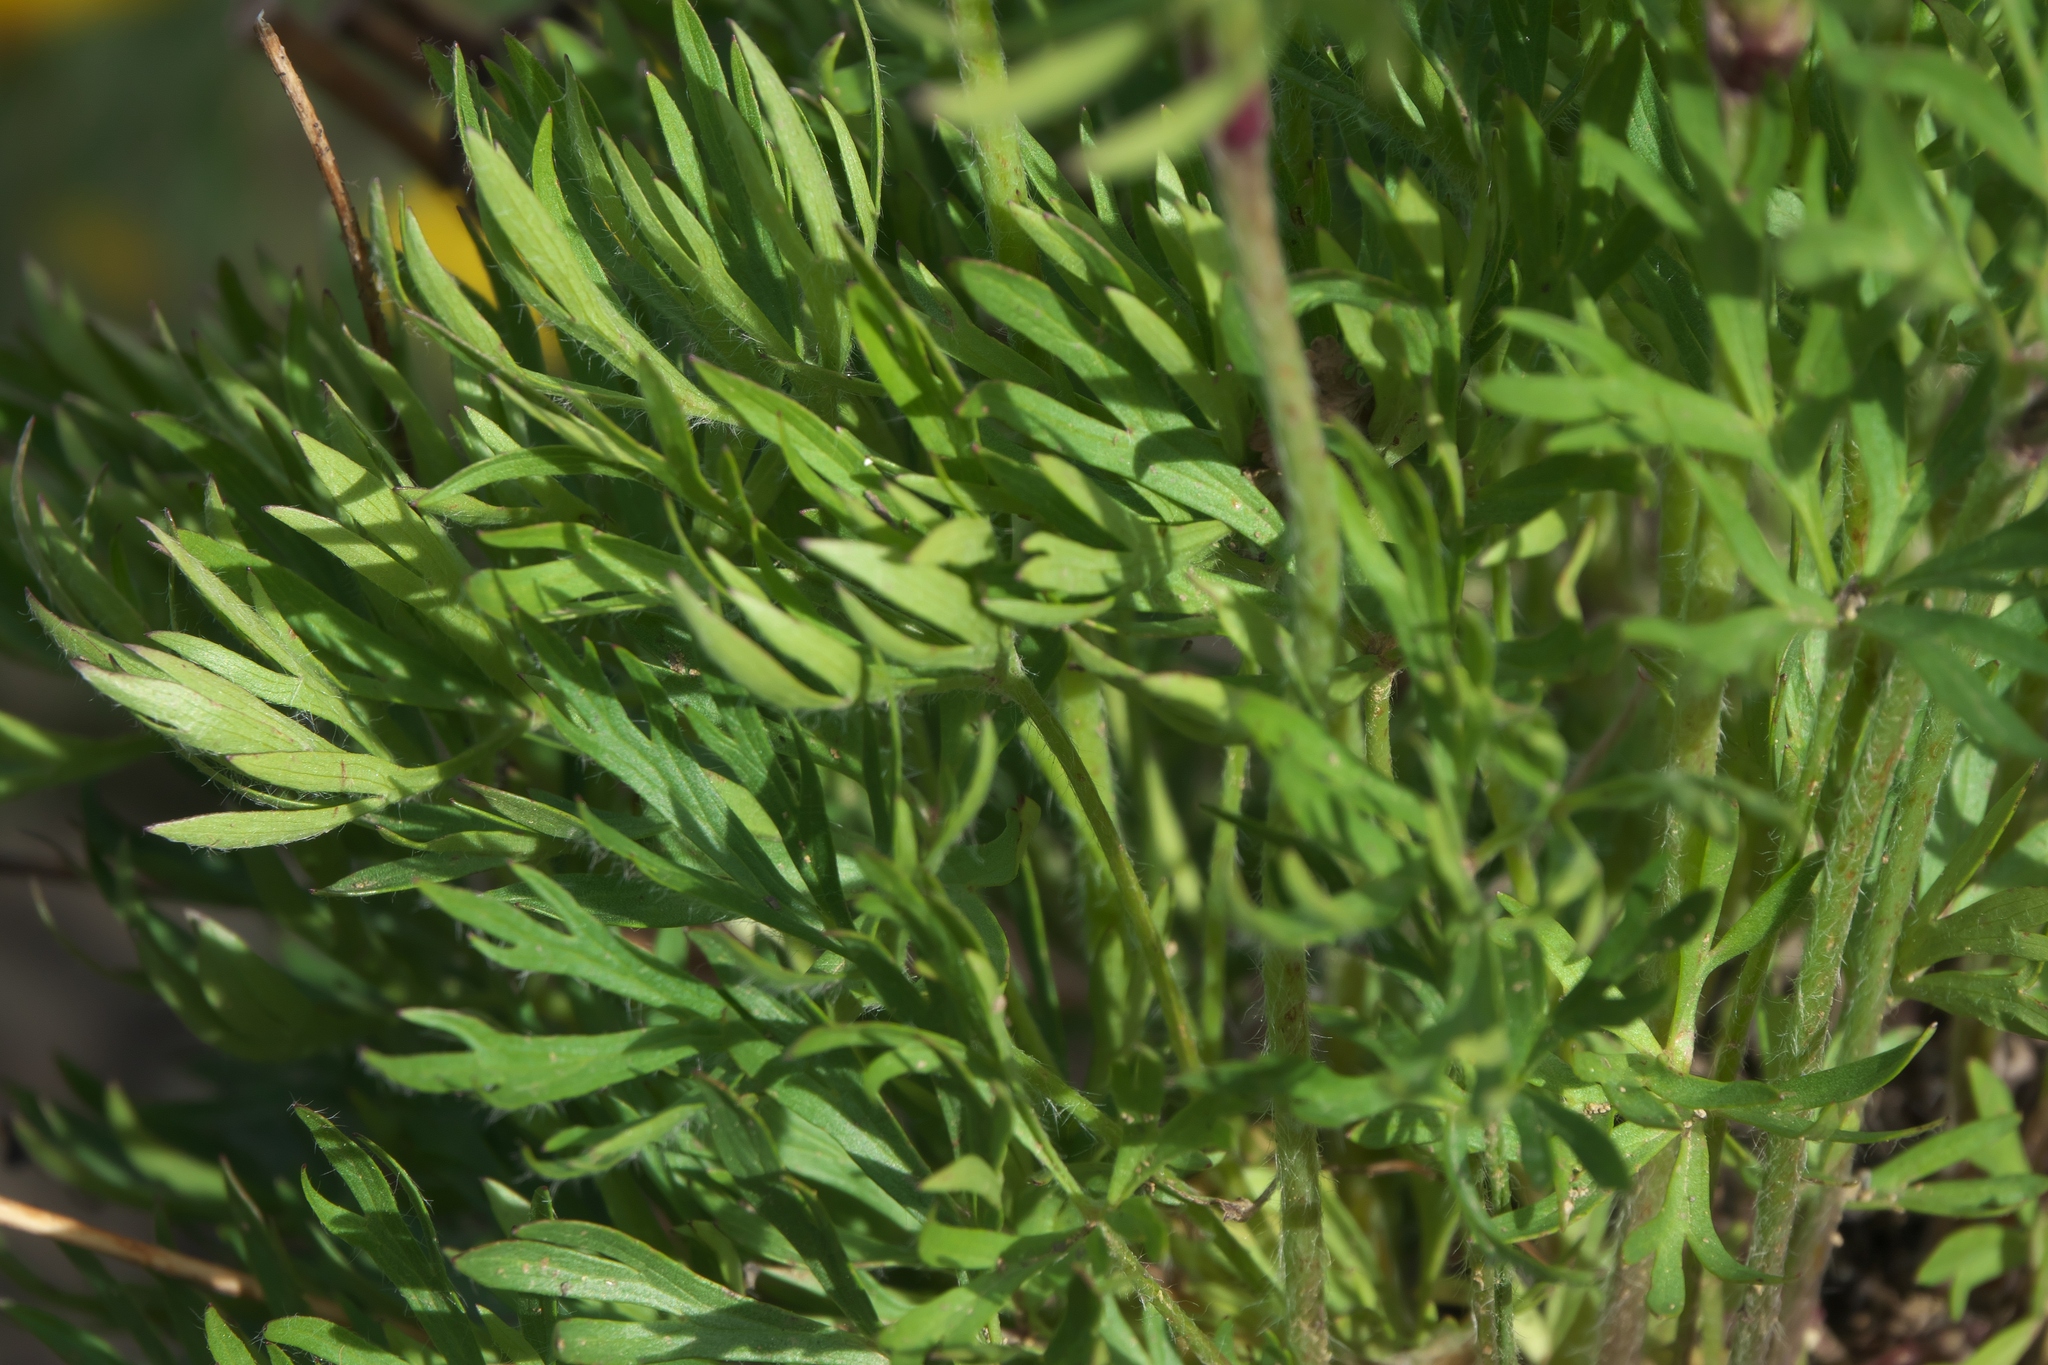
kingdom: Plantae
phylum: Tracheophyta
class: Magnoliopsida
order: Ranunculales
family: Ranunculaceae
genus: Anemone
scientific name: Anemone multifida
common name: Bird's-foot anemone
